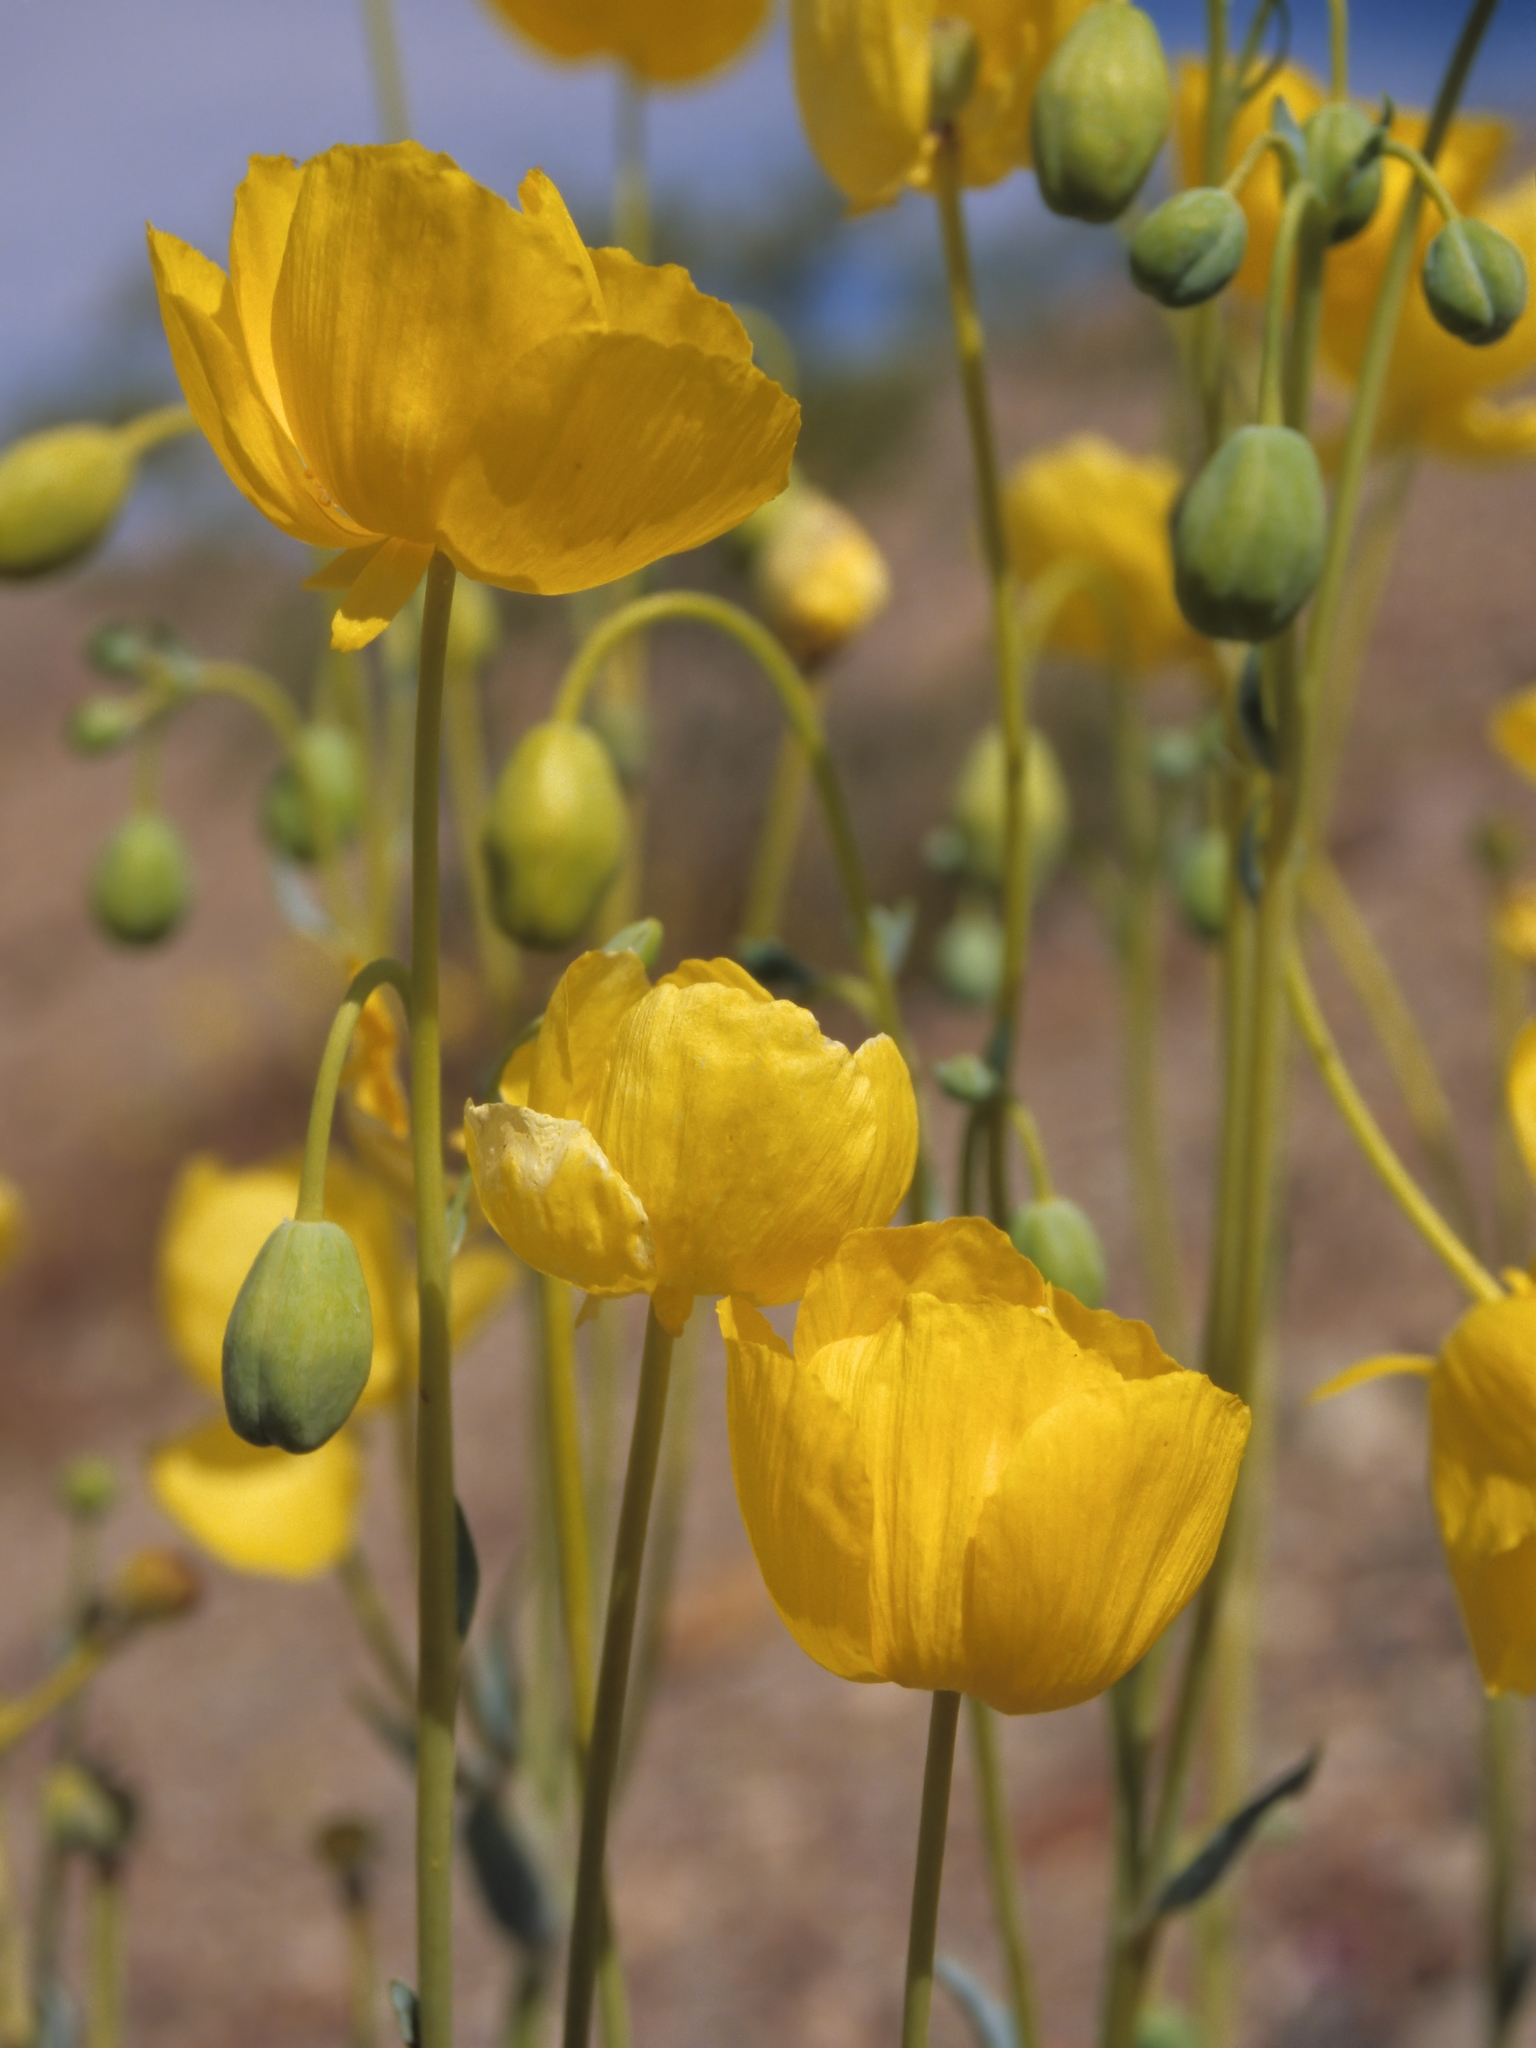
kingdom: Plantae
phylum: Tracheophyta
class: Magnoliopsida
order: Ranunculales
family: Papaveraceae
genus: Arctomecon
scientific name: Arctomecon californicum
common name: Golden bearclaw-poppy
